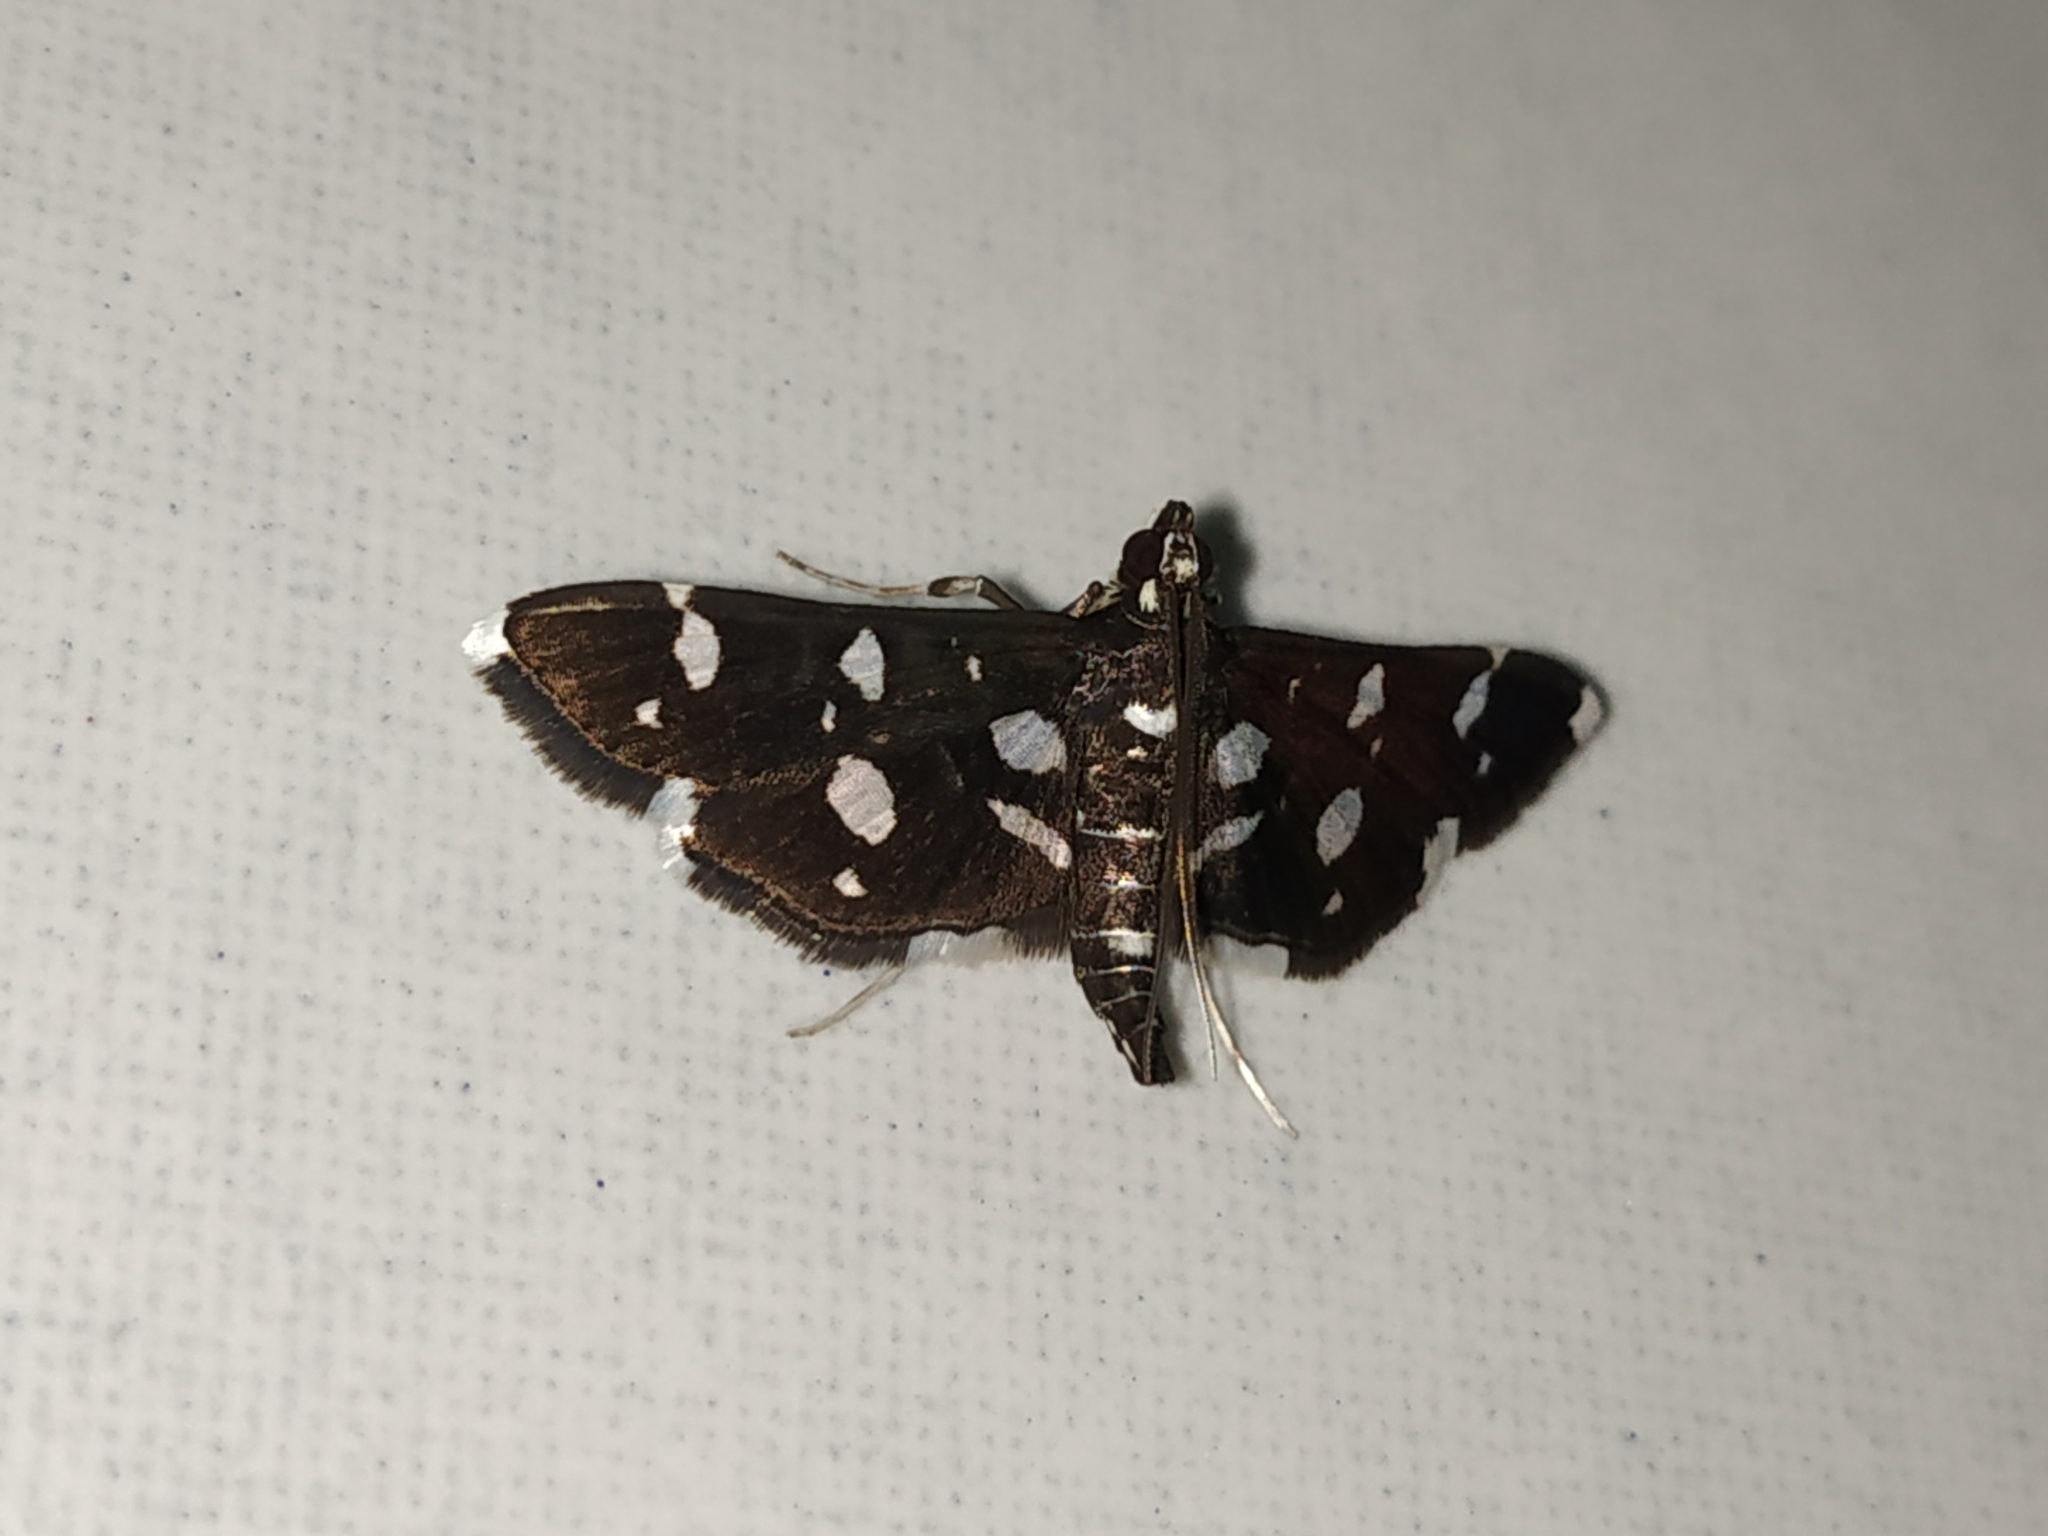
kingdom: Animalia
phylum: Arthropoda
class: Insecta
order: Lepidoptera
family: Crambidae
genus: Bocchoris
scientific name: Bocchoris inspersalis
